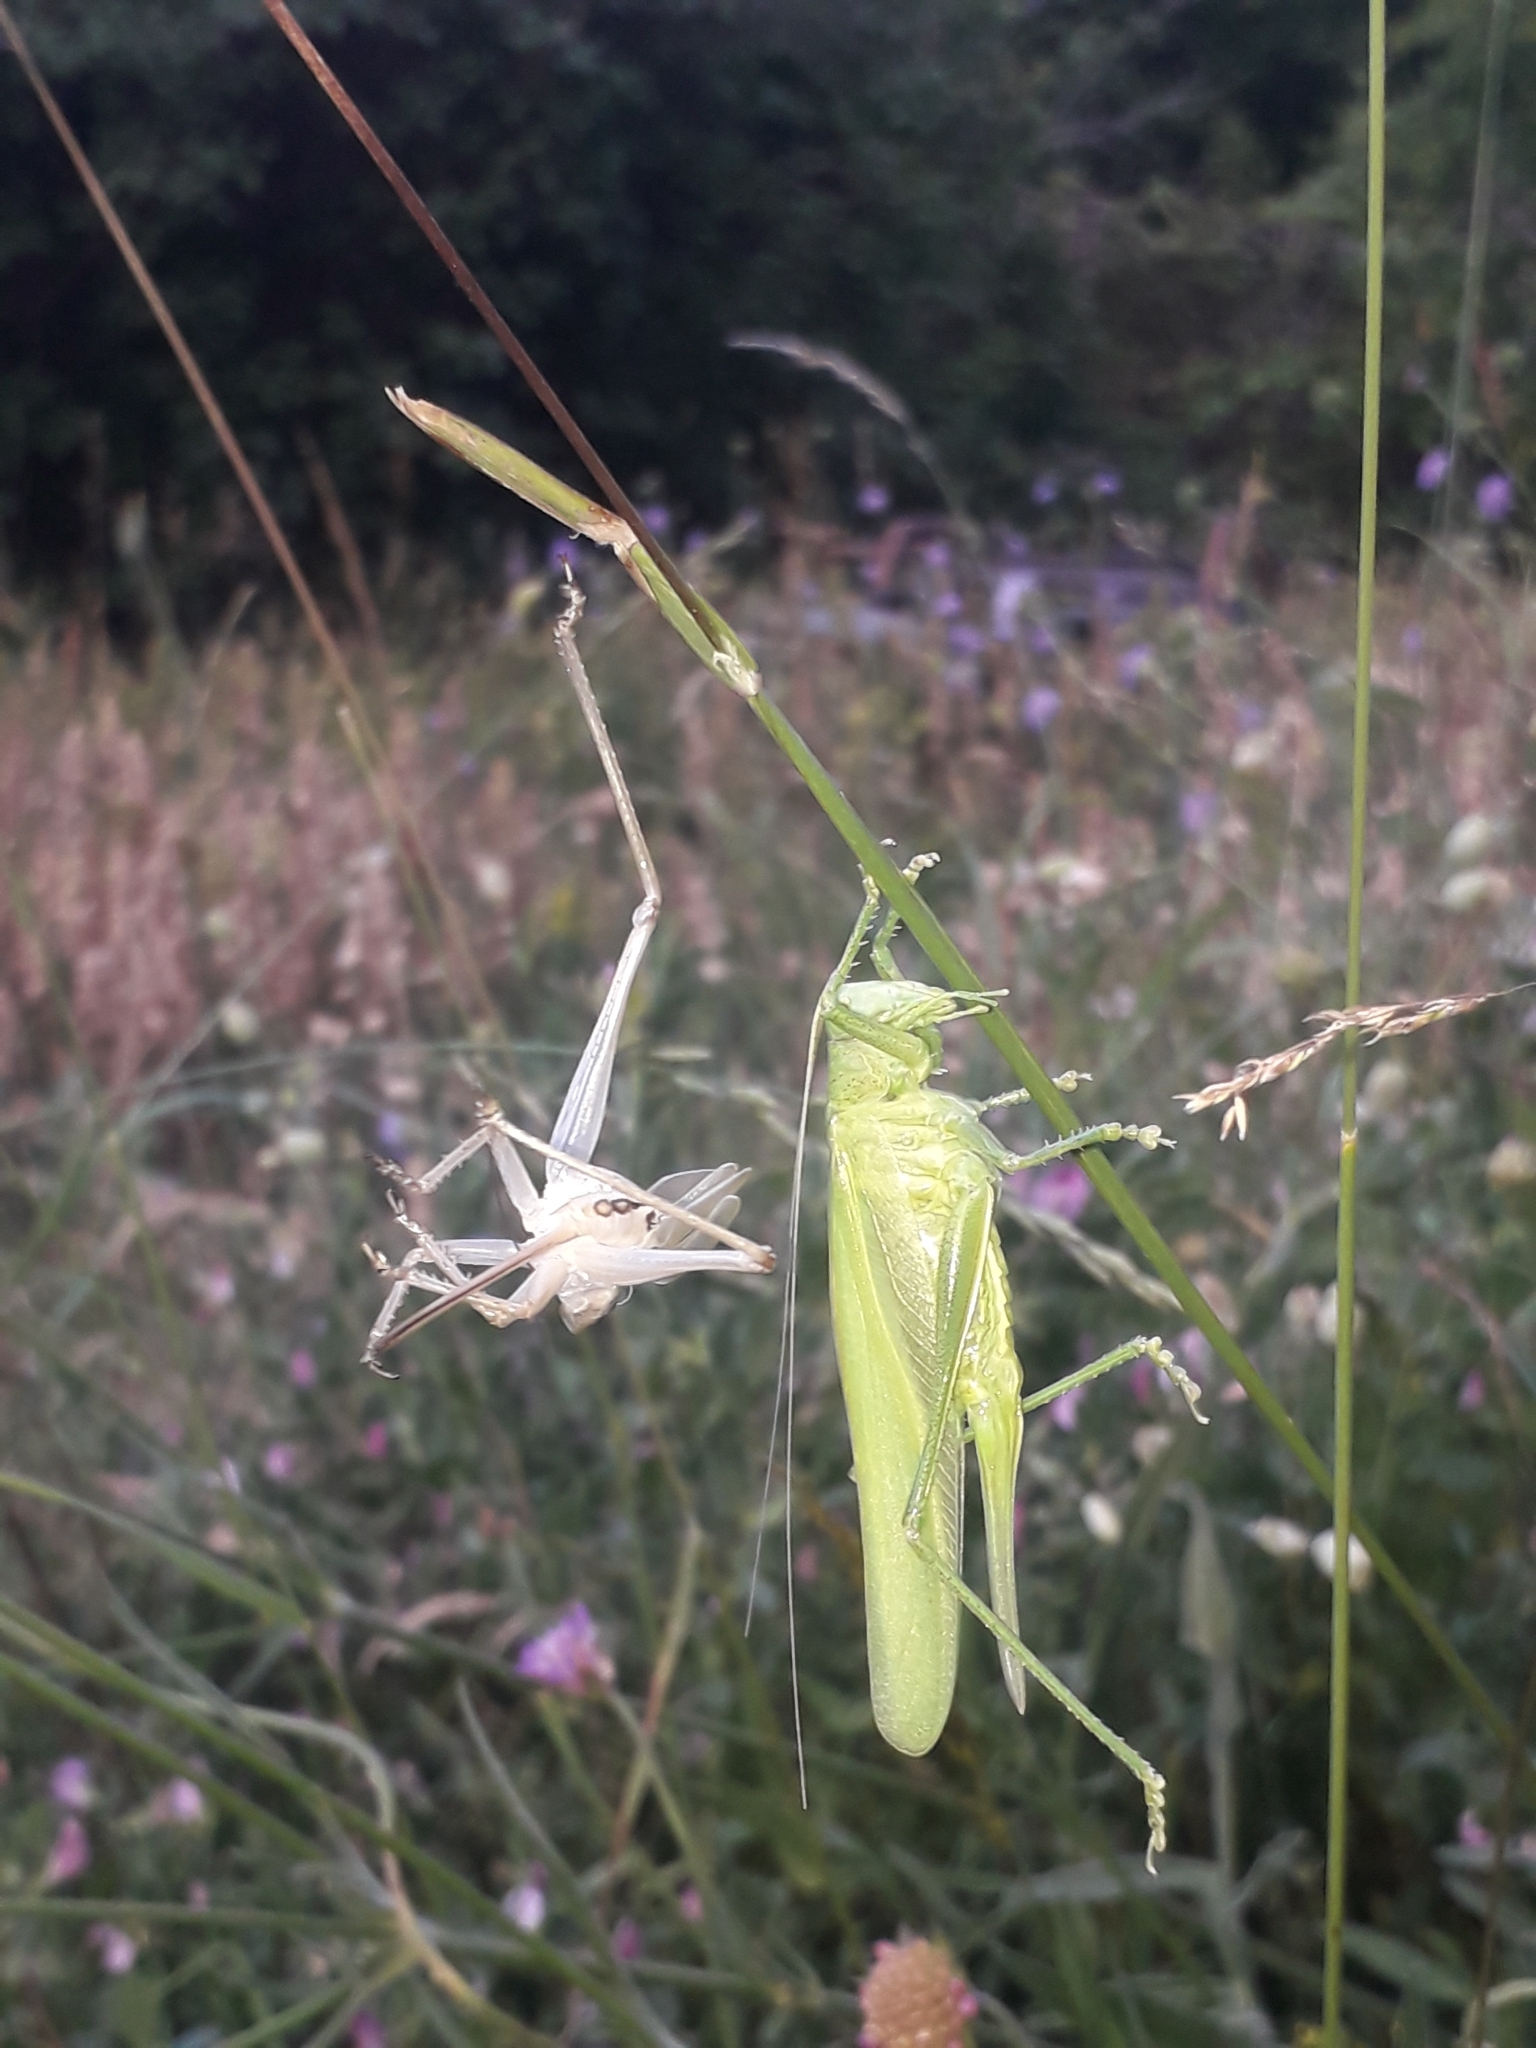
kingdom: Animalia
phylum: Arthropoda
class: Insecta
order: Orthoptera
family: Tettigoniidae
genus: Tettigonia
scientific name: Tettigonia viridissima
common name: Great green bush-cricket
